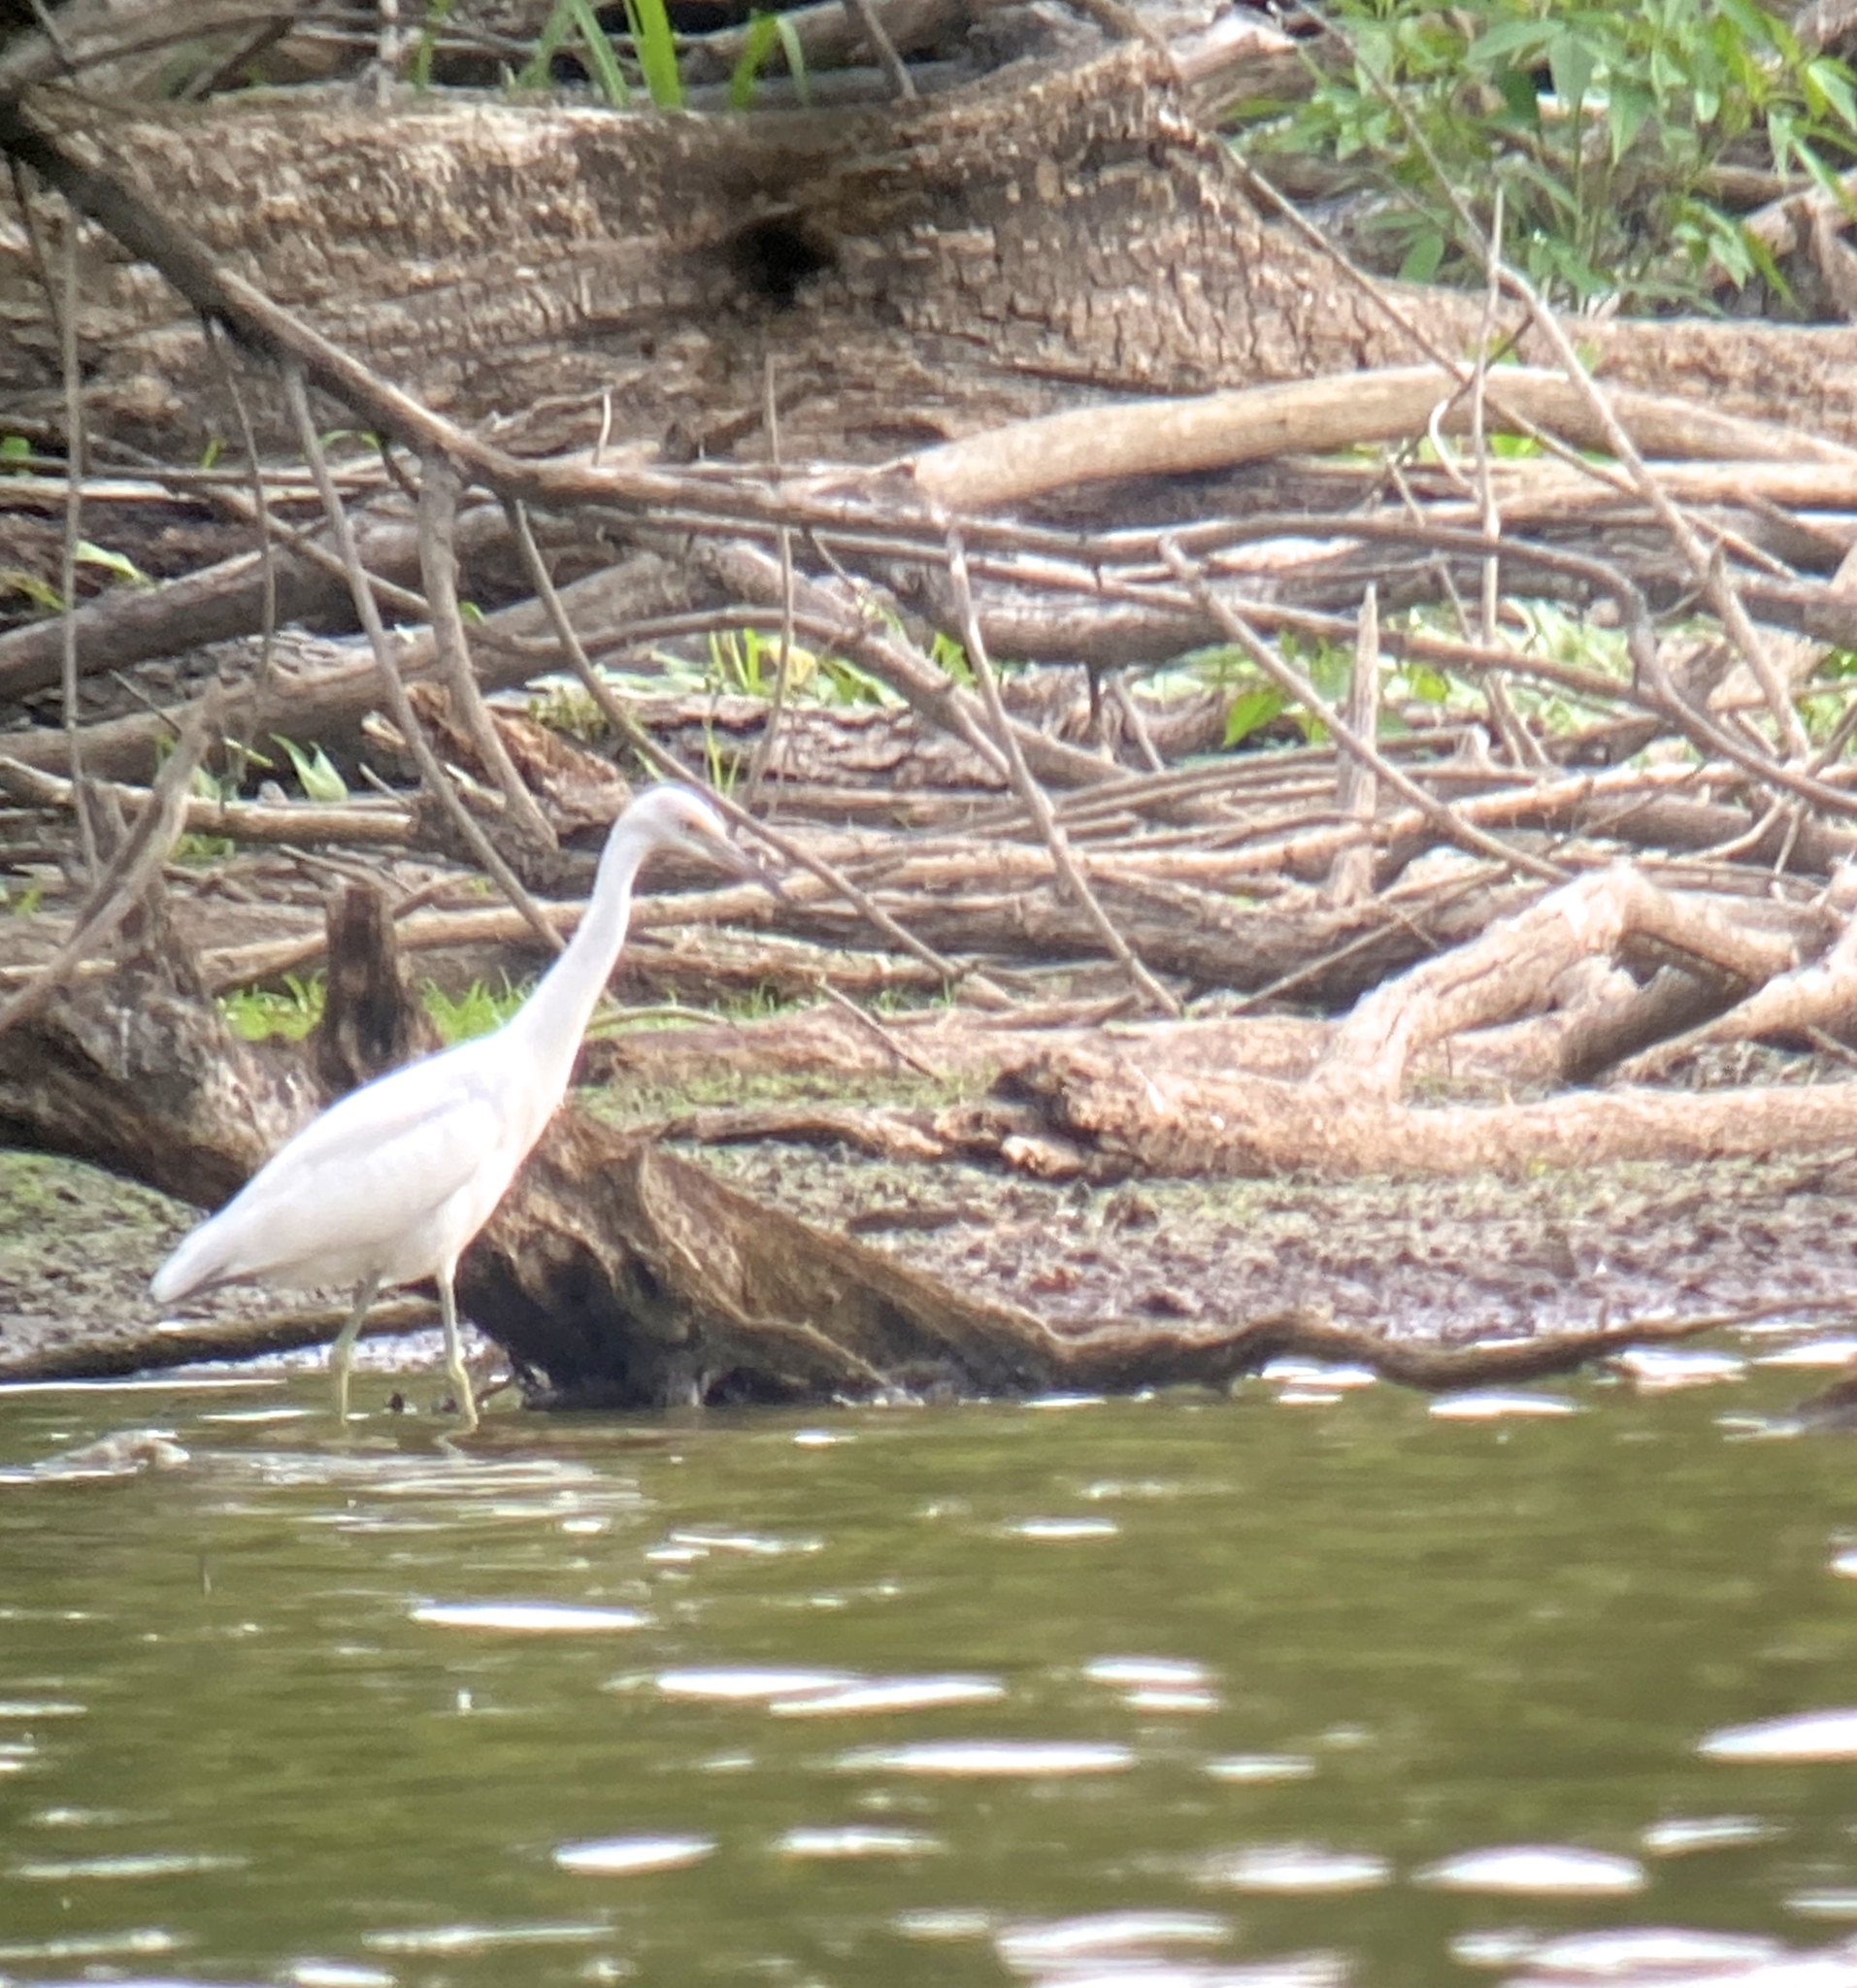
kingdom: Animalia
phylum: Chordata
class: Aves
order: Pelecaniformes
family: Ardeidae
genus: Egretta
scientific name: Egretta caerulea
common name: Little blue heron
